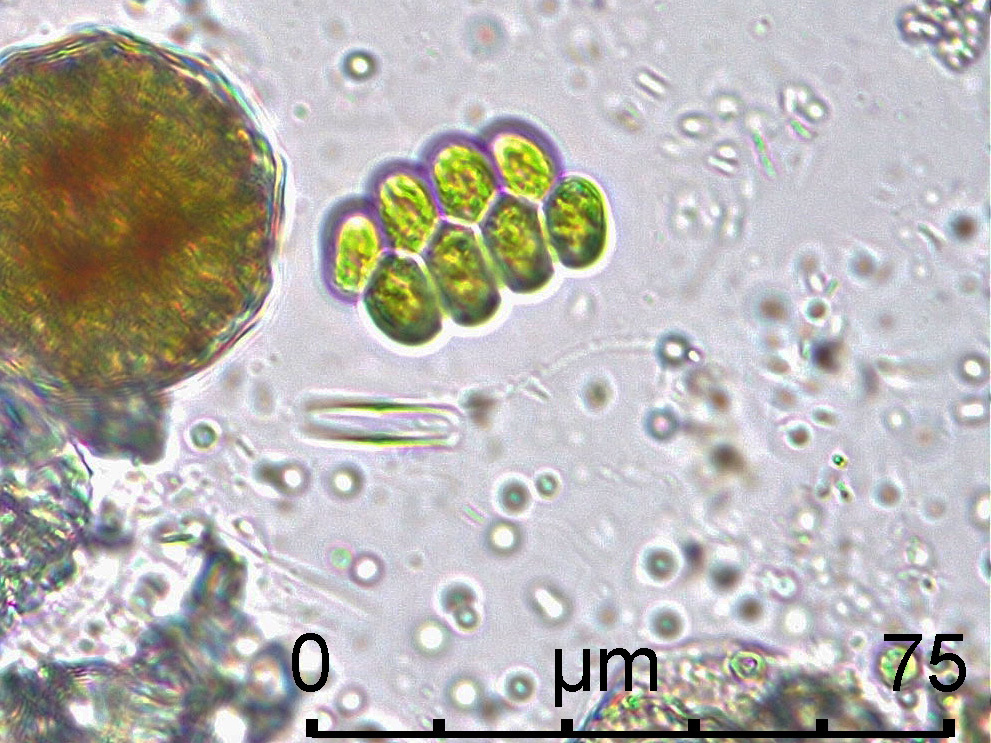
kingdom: Plantae
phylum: Chlorophyta
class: Chlorophyceae
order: Sphaeropleales
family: Scenedesmaceae
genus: Verrucodesmus
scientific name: Verrucodesmus verrucosus
